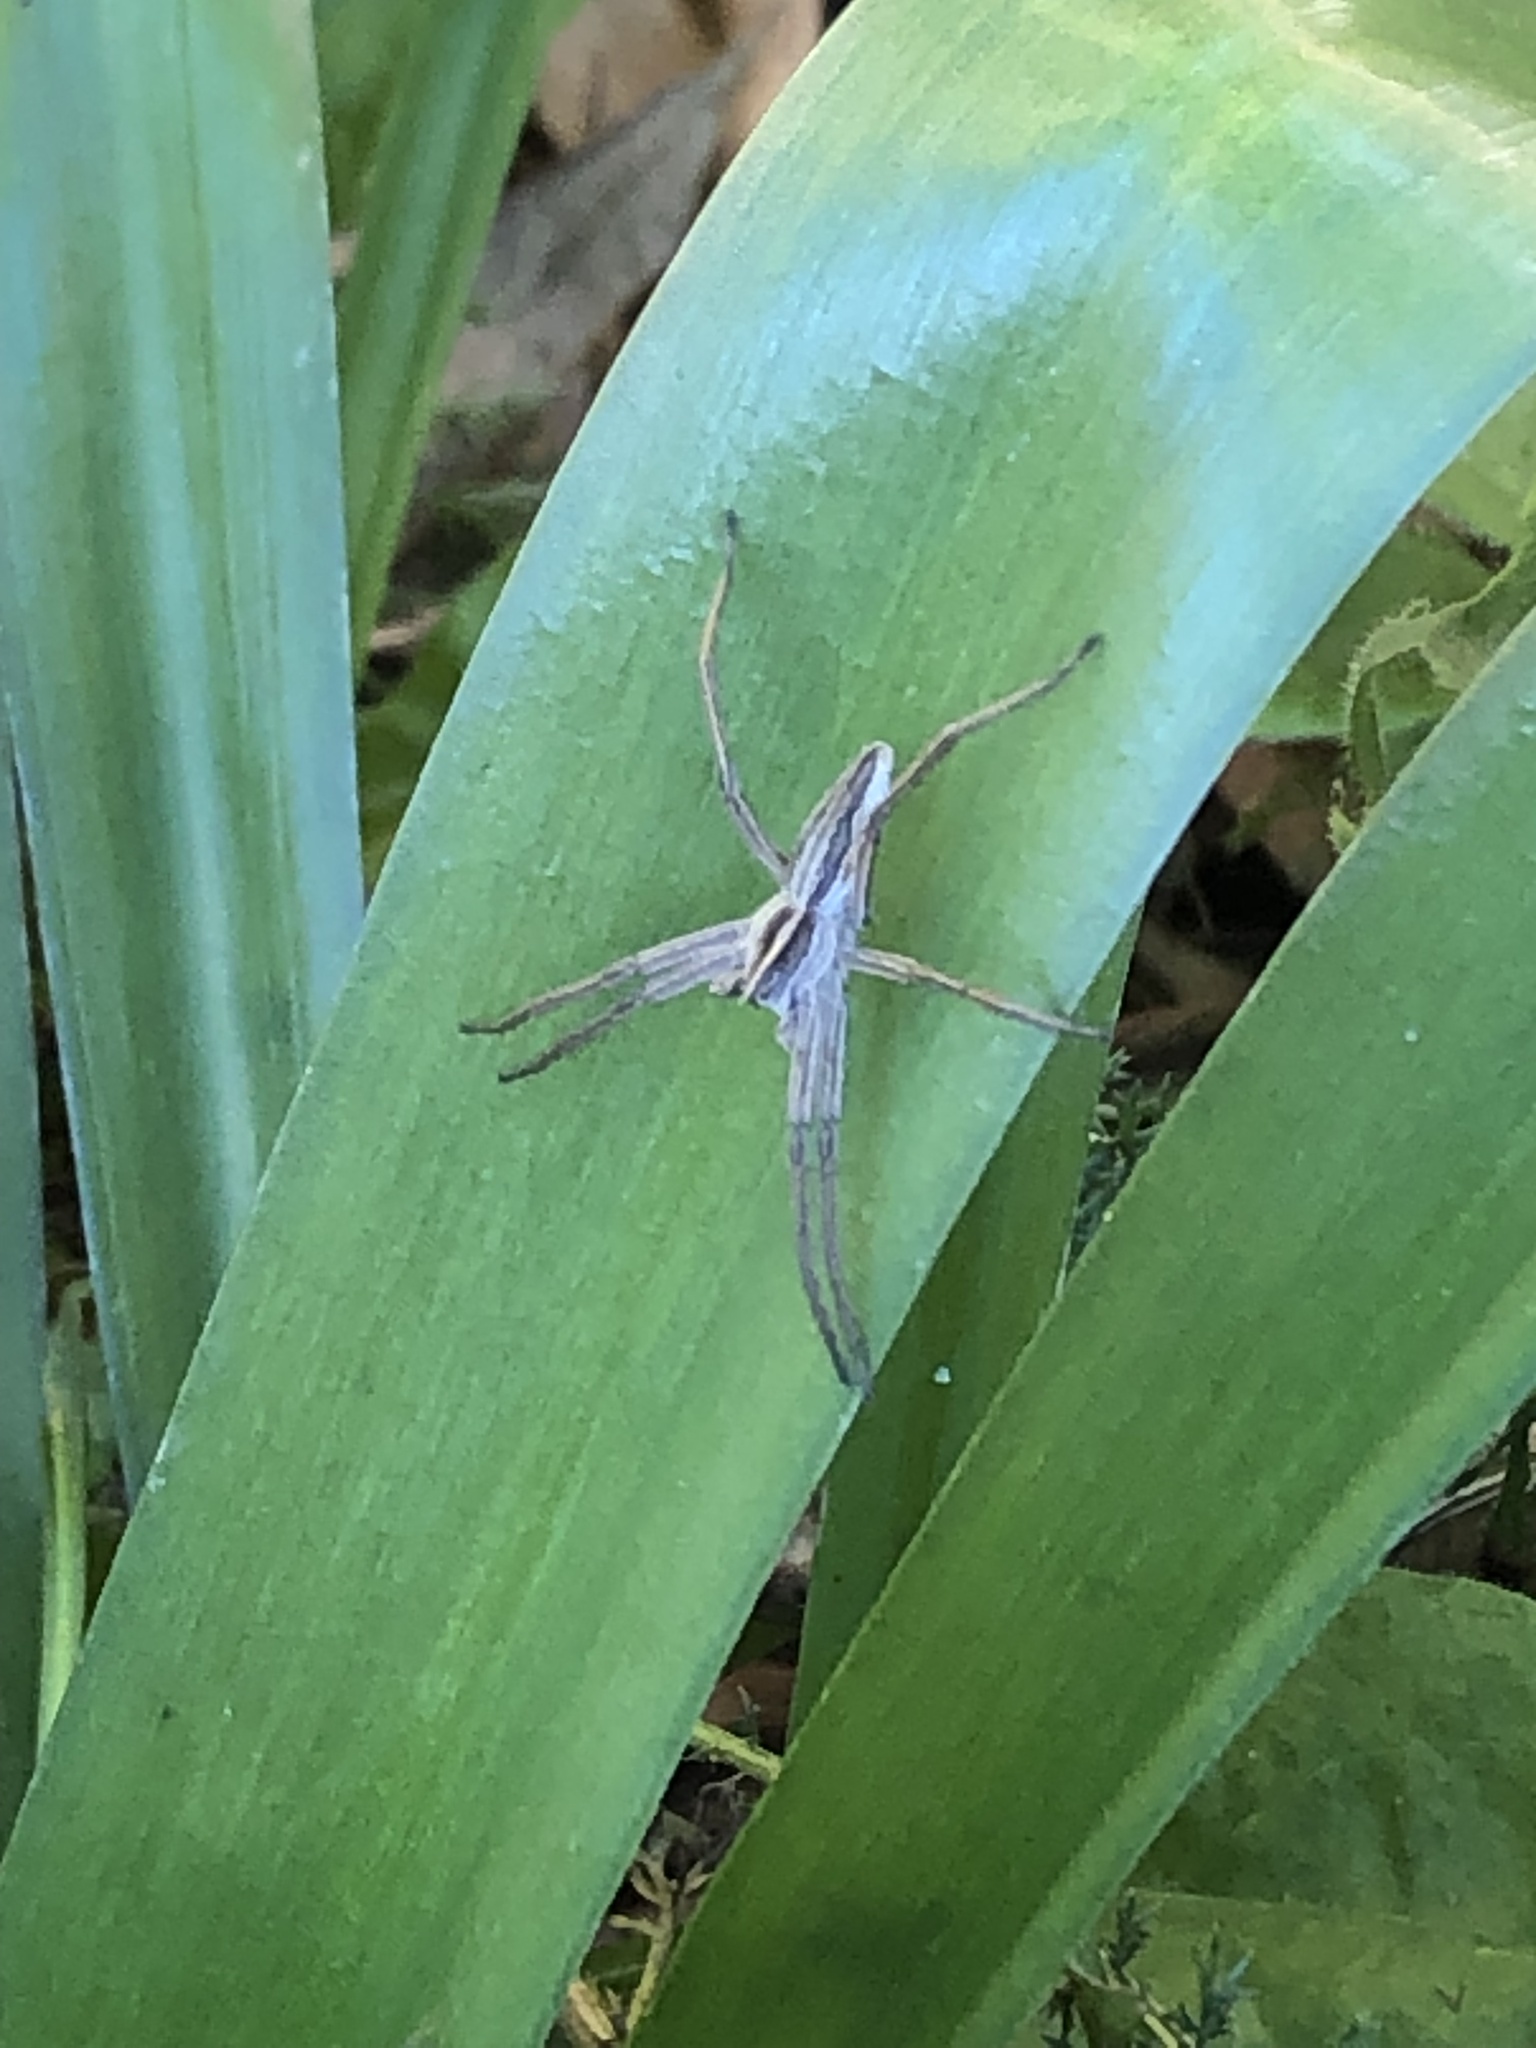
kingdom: Animalia
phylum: Arthropoda
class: Arachnida
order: Araneae
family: Pisauridae
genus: Pisaura
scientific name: Pisaura mirabilis
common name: Tent spider
